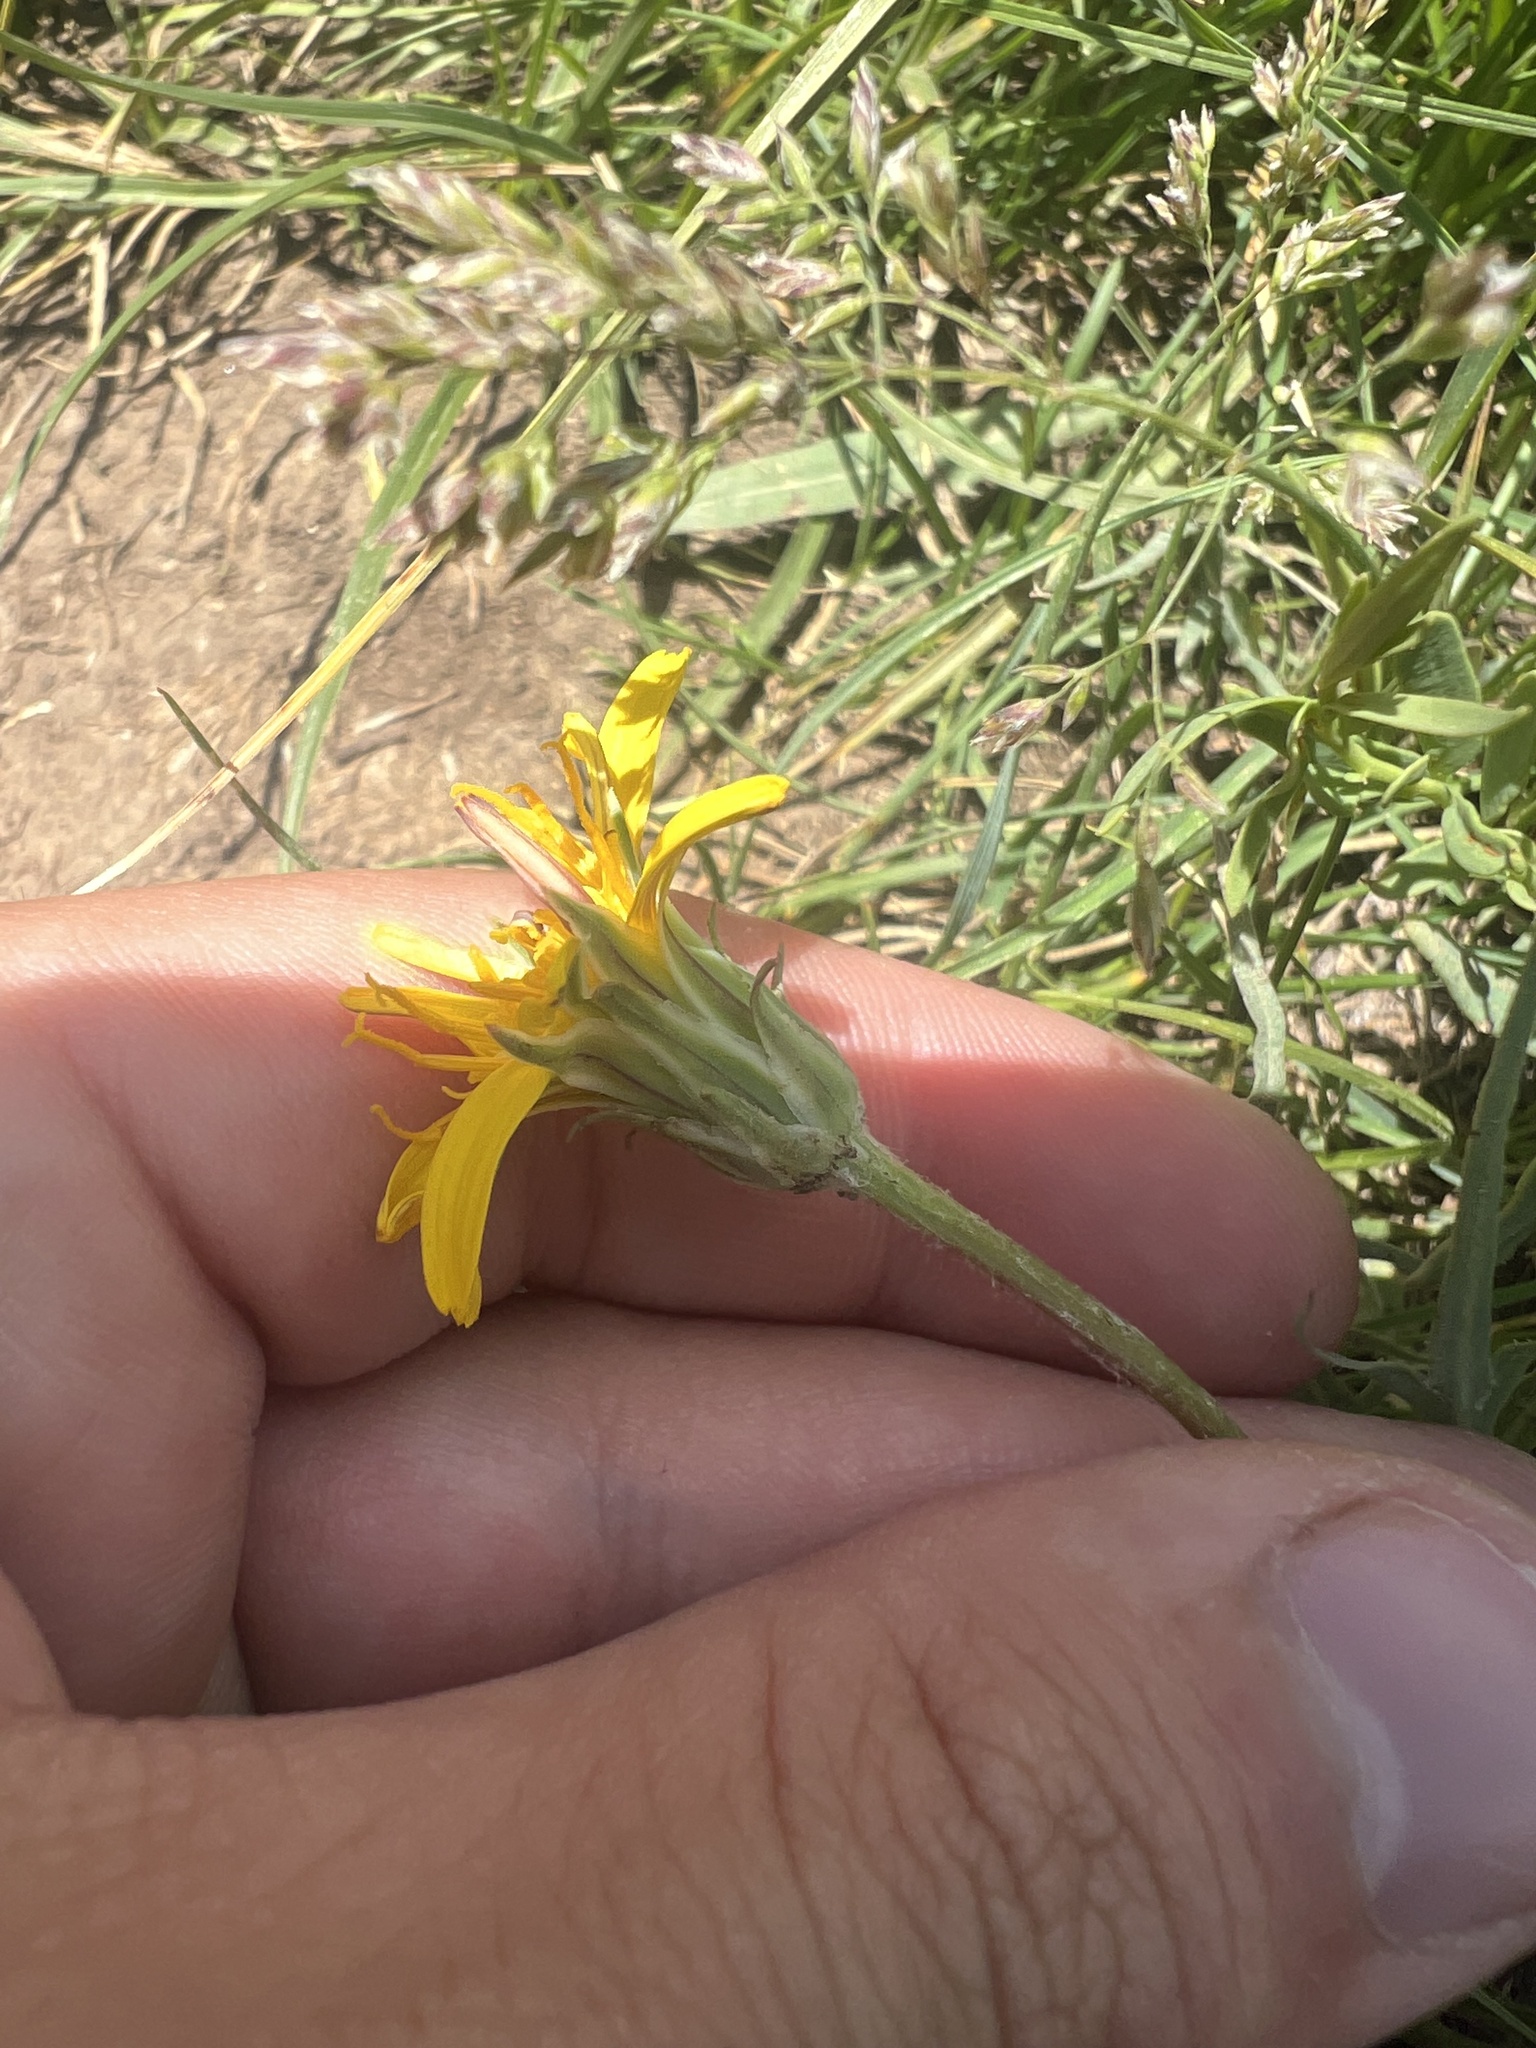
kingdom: Plantae
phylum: Tracheophyta
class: Magnoliopsida
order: Asterales
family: Asteraceae
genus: Microseris
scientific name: Microseris cuspidata
